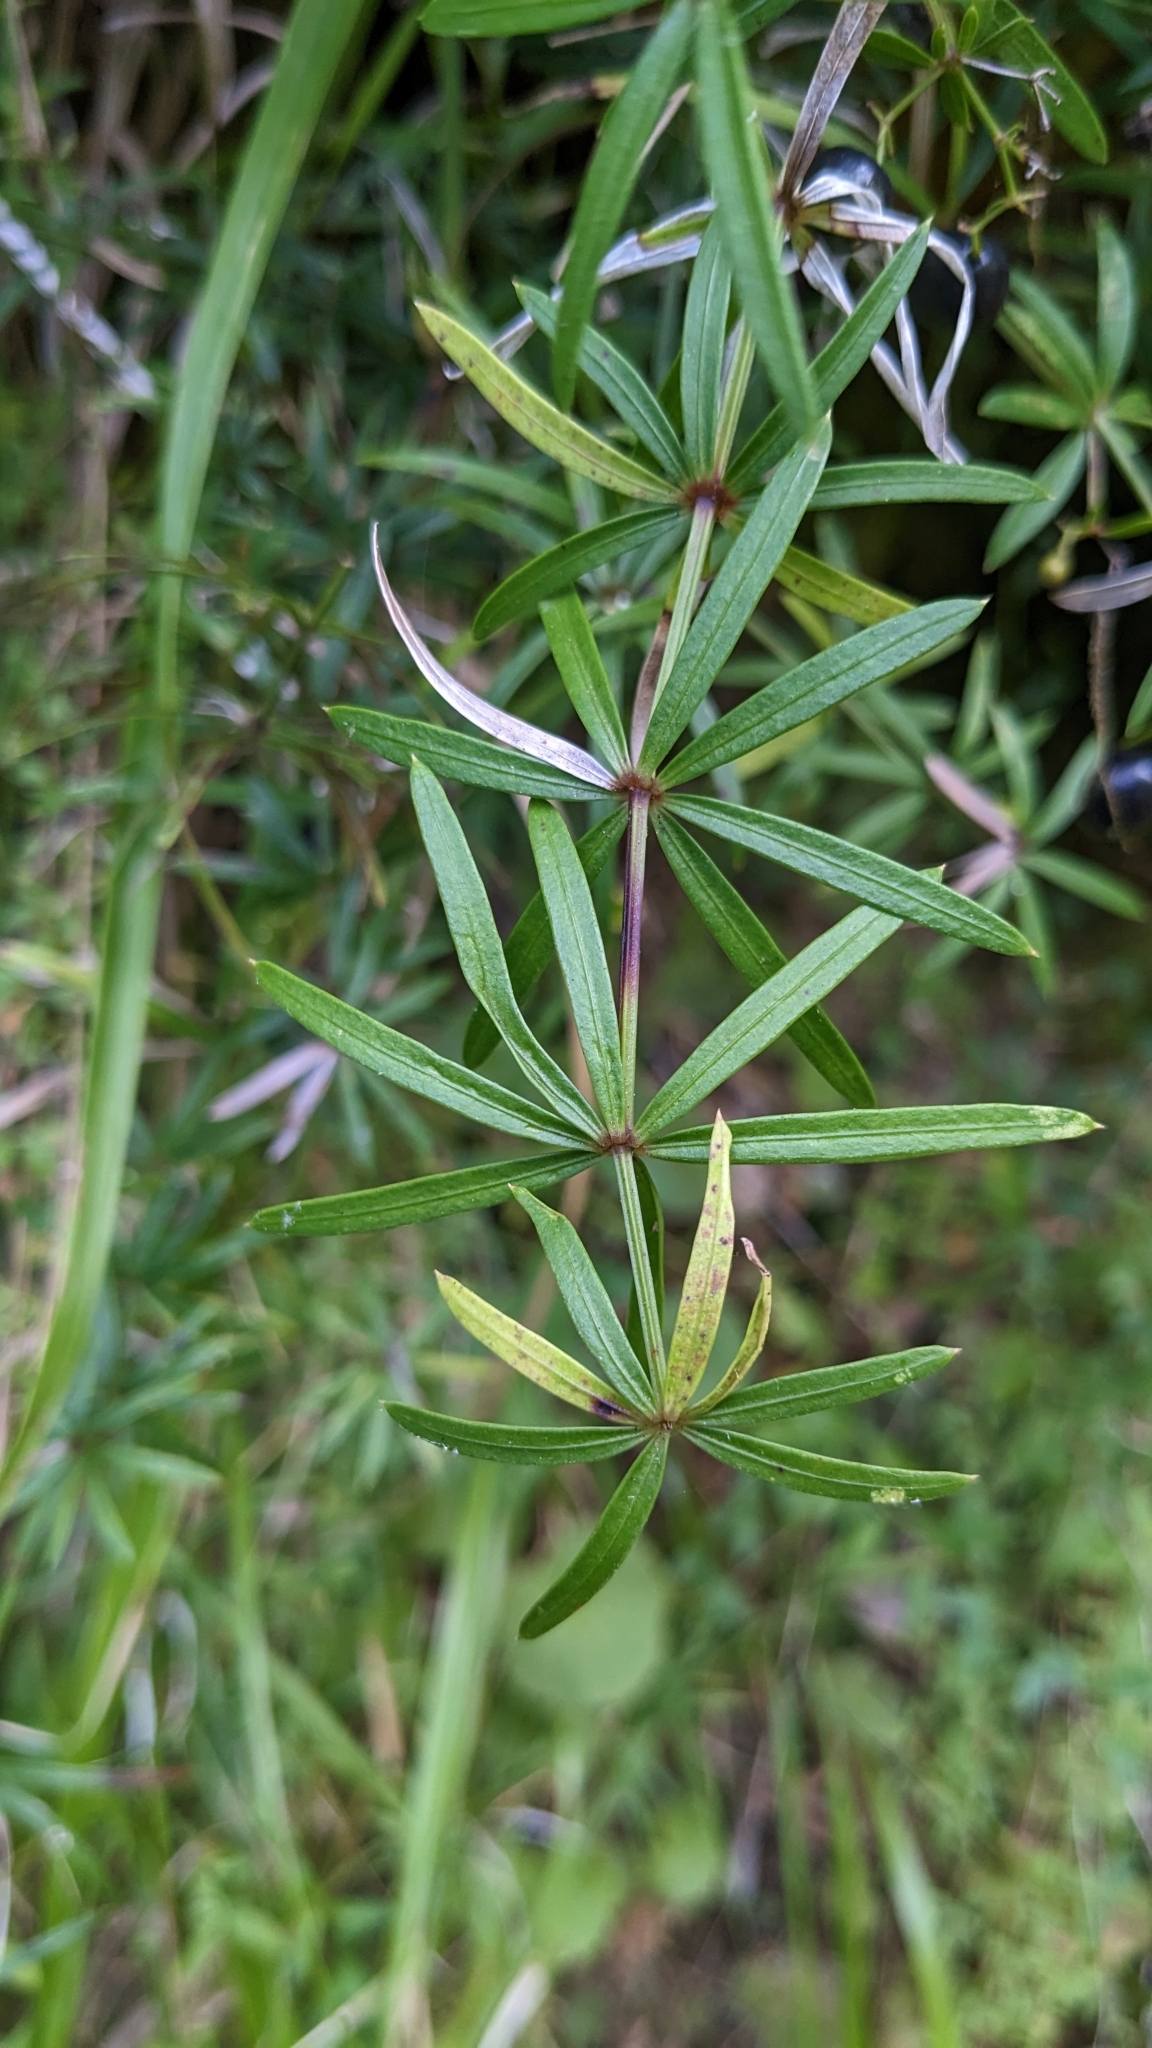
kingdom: Plantae
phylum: Tracheophyta
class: Magnoliopsida
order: Gentianales
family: Rubiaceae
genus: Rubia
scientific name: Rubia occidens
